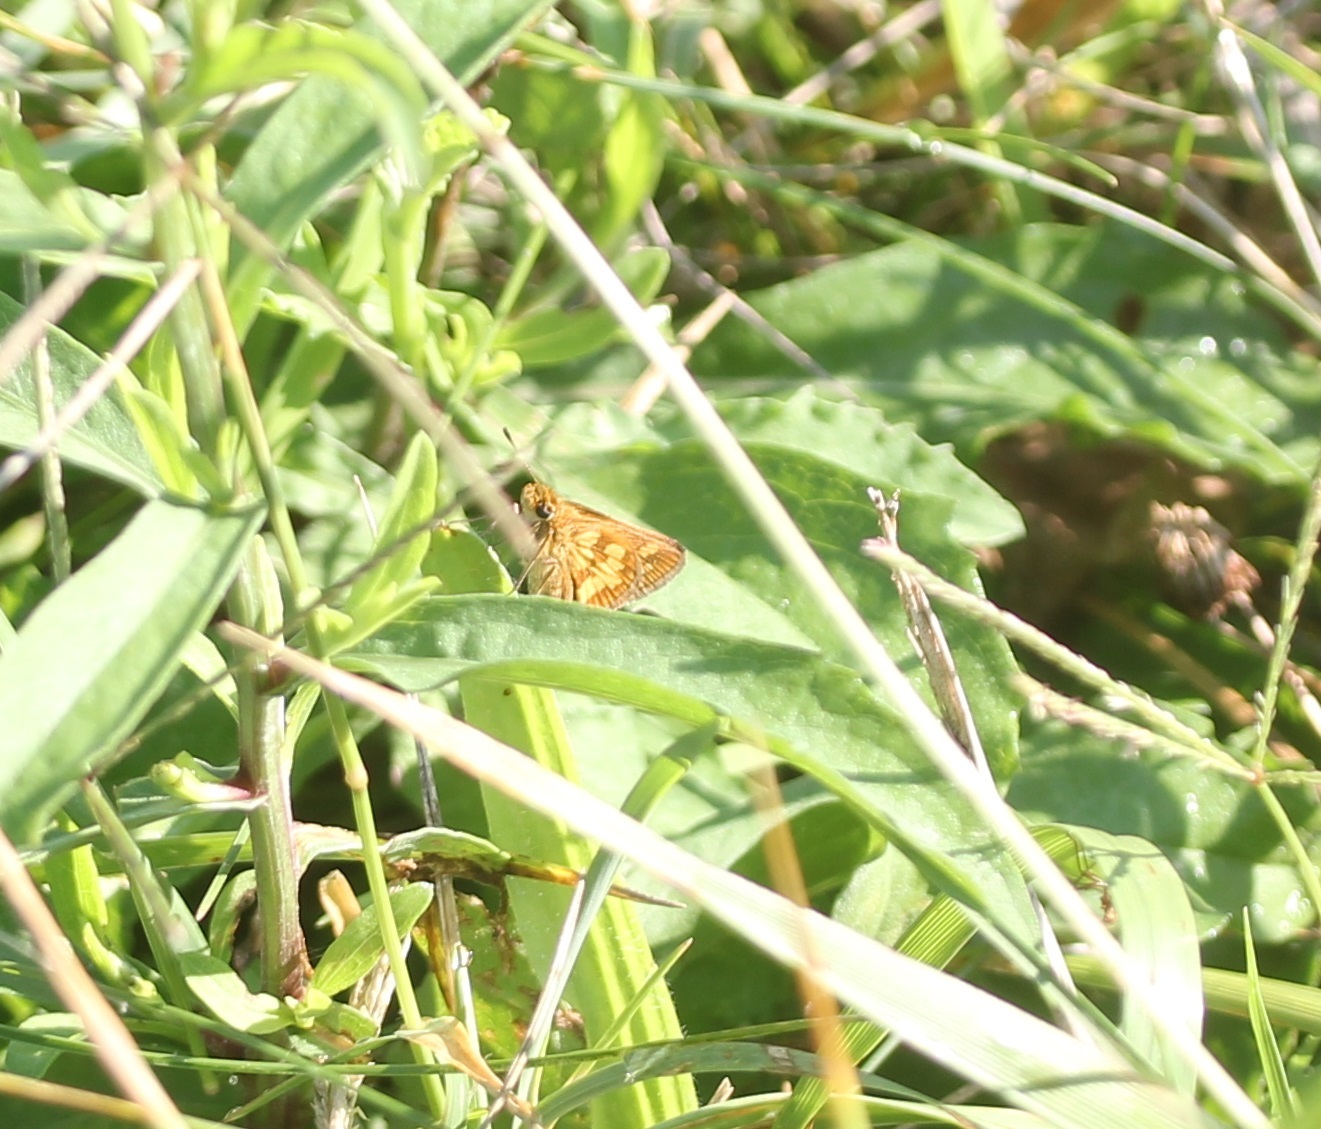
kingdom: Animalia
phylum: Arthropoda
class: Insecta
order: Lepidoptera
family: Hesperiidae
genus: Polites
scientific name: Polites coras
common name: Peck's skipper
